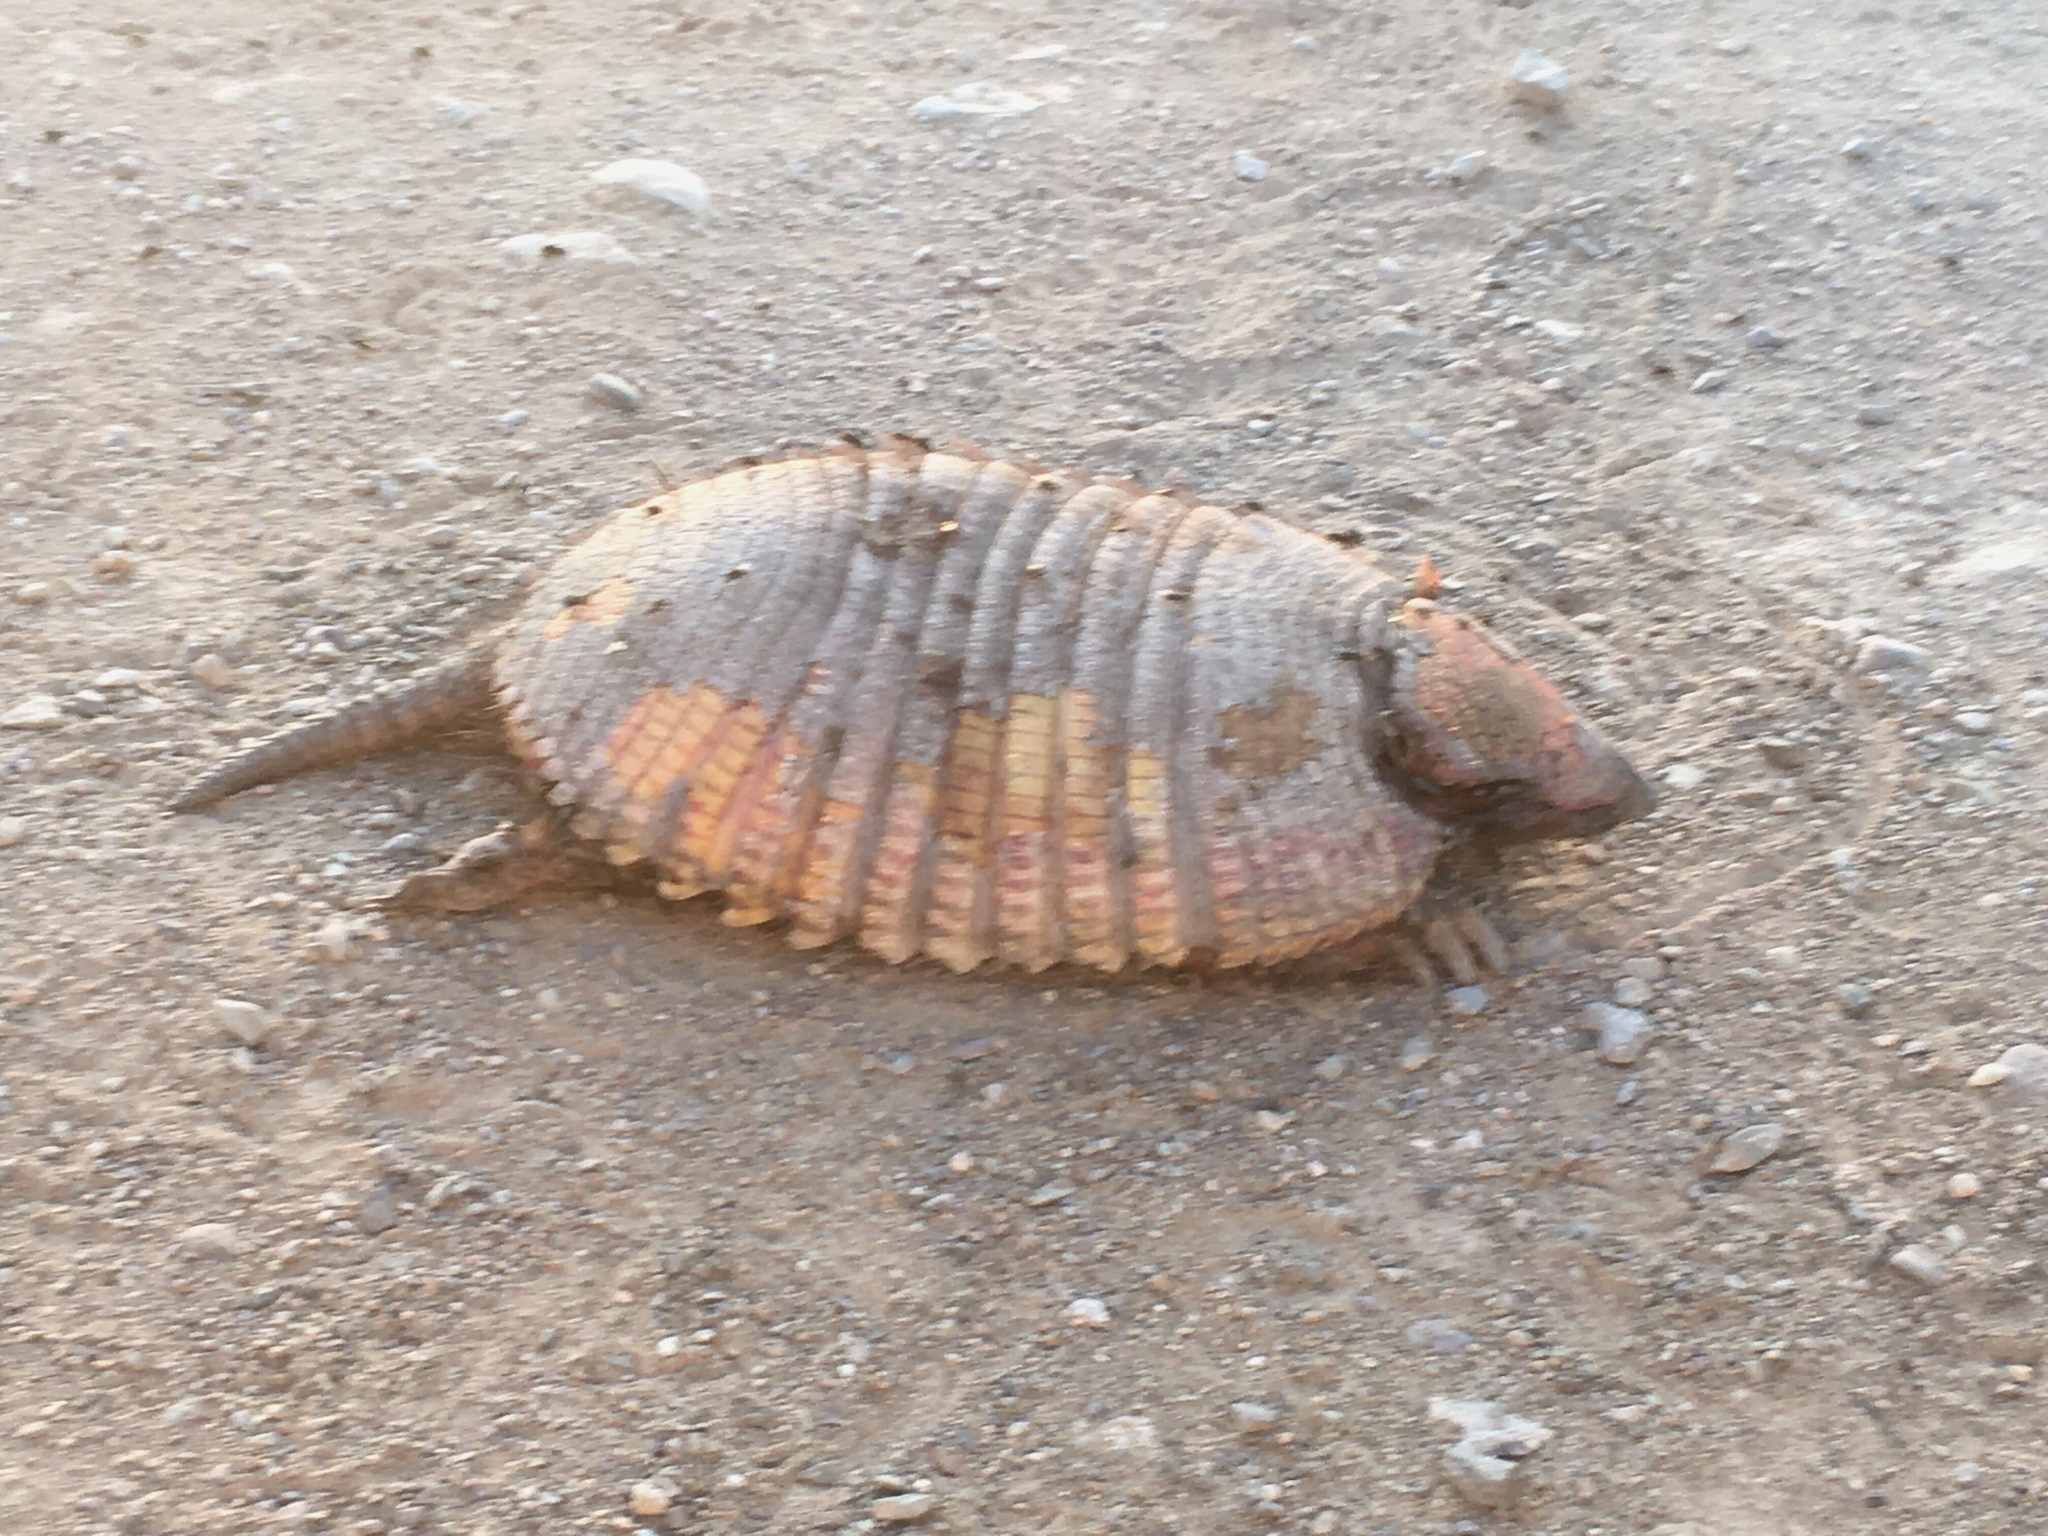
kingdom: Animalia
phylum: Chordata
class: Mammalia
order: Cingulata
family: Dasypodidae
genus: Chaetophractus
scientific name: Chaetophractus villosus
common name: Big hairy armadillo
